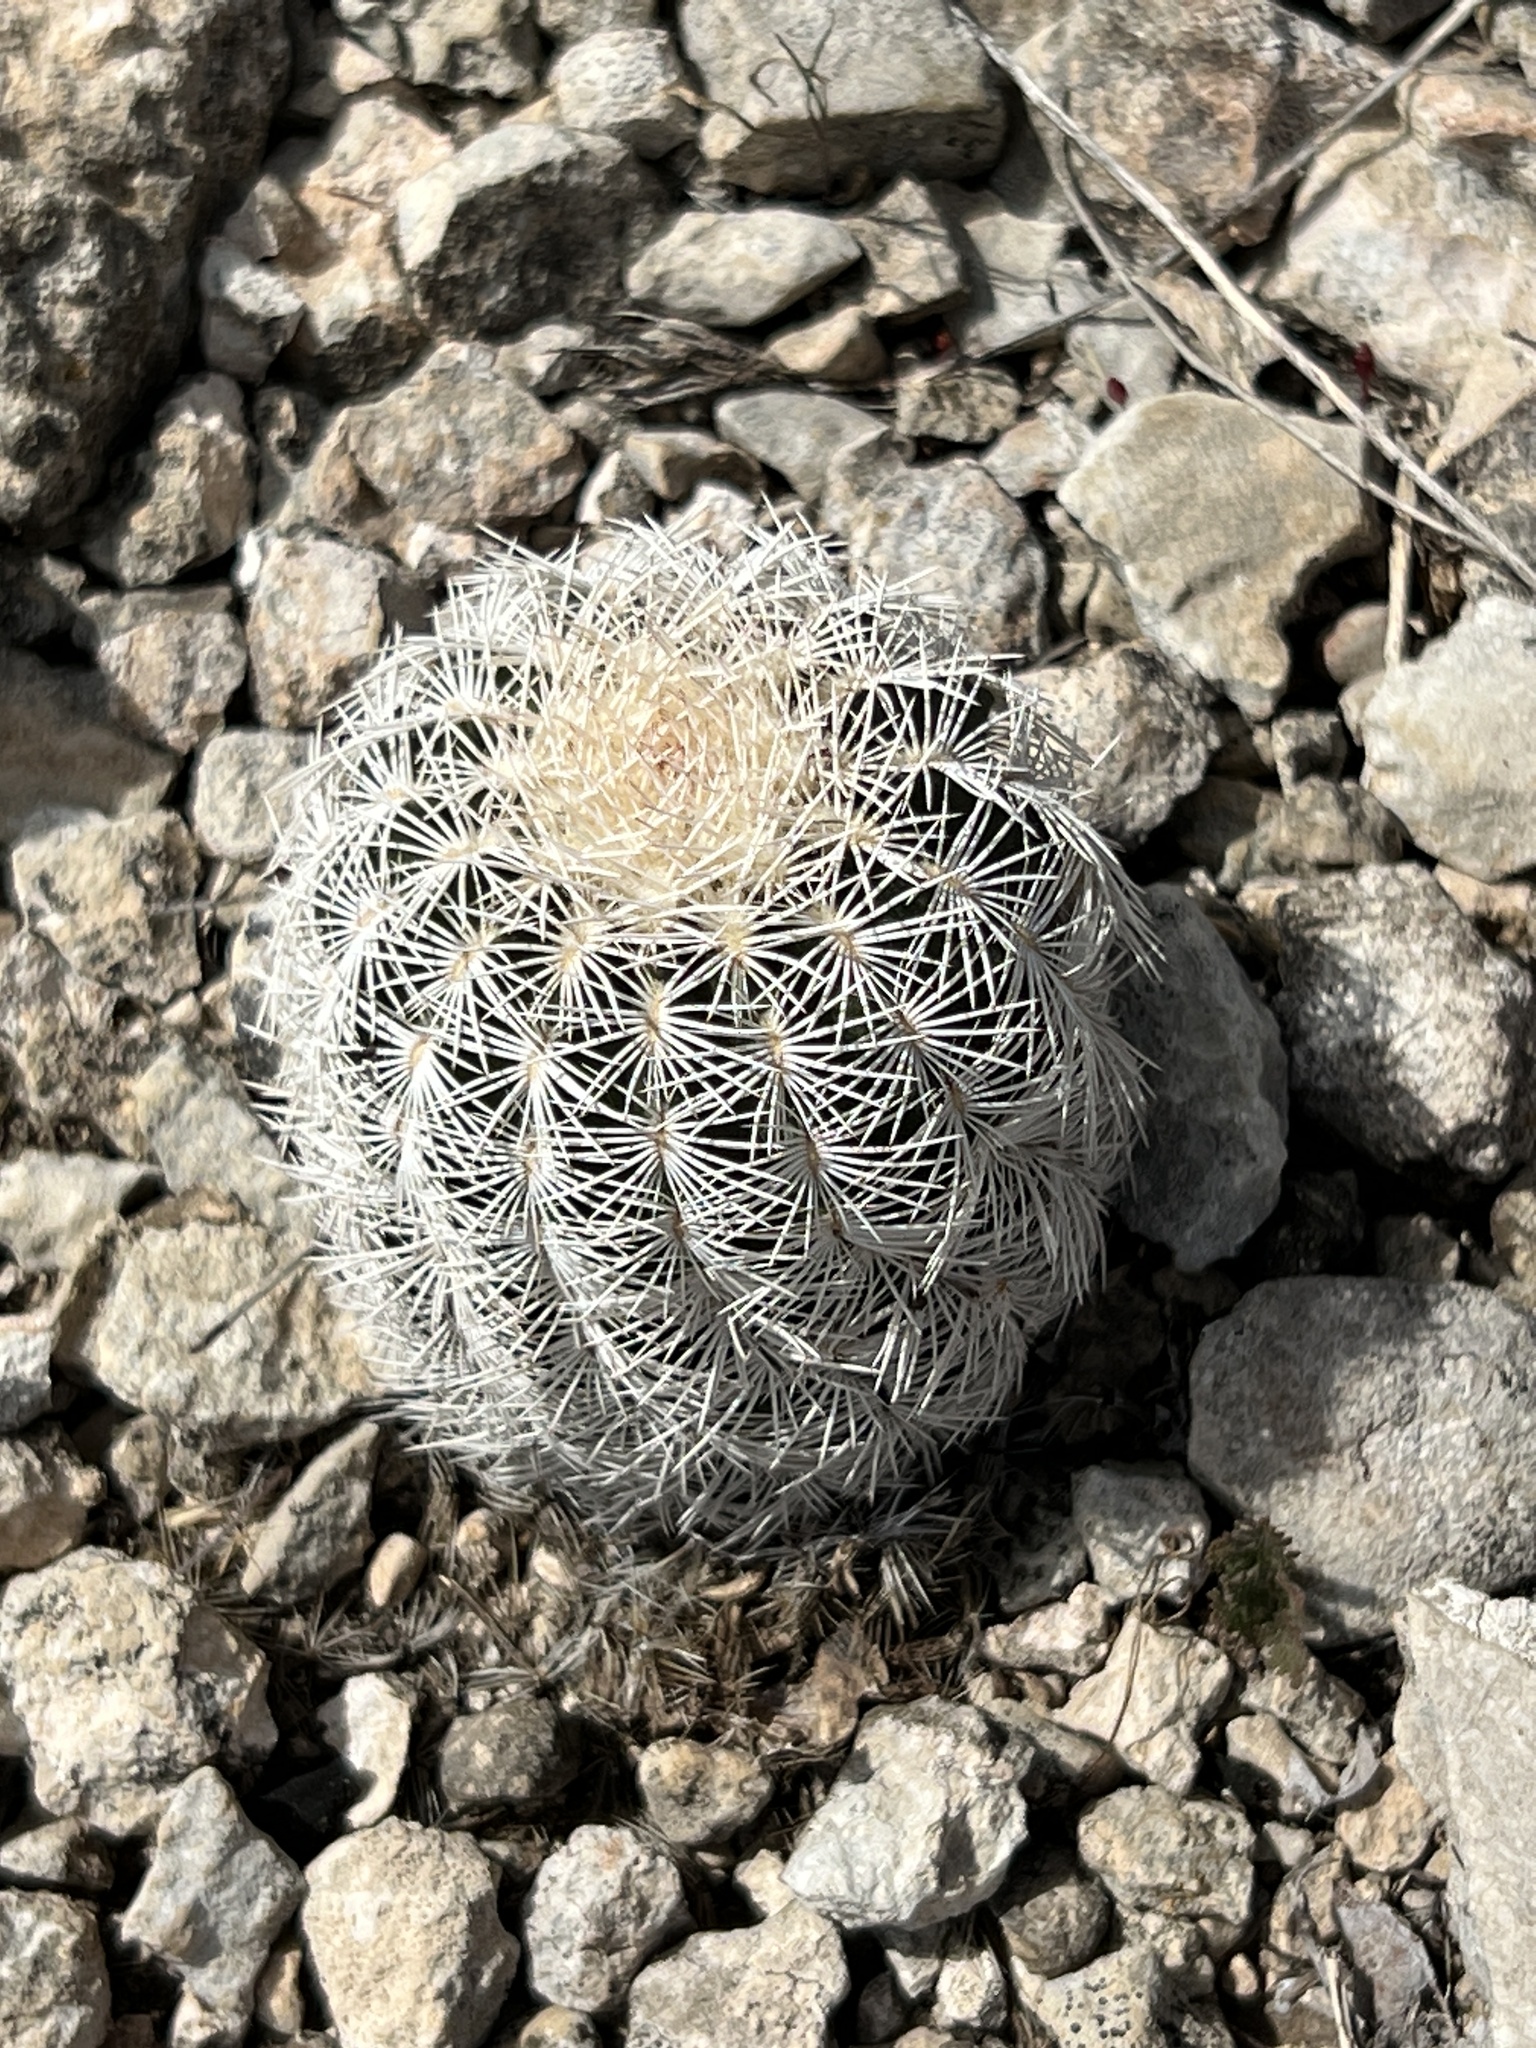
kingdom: Plantae
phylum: Tracheophyta
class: Magnoliopsida
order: Caryophyllales
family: Cactaceae
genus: Echinocereus
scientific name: Echinocereus reichenbachii
